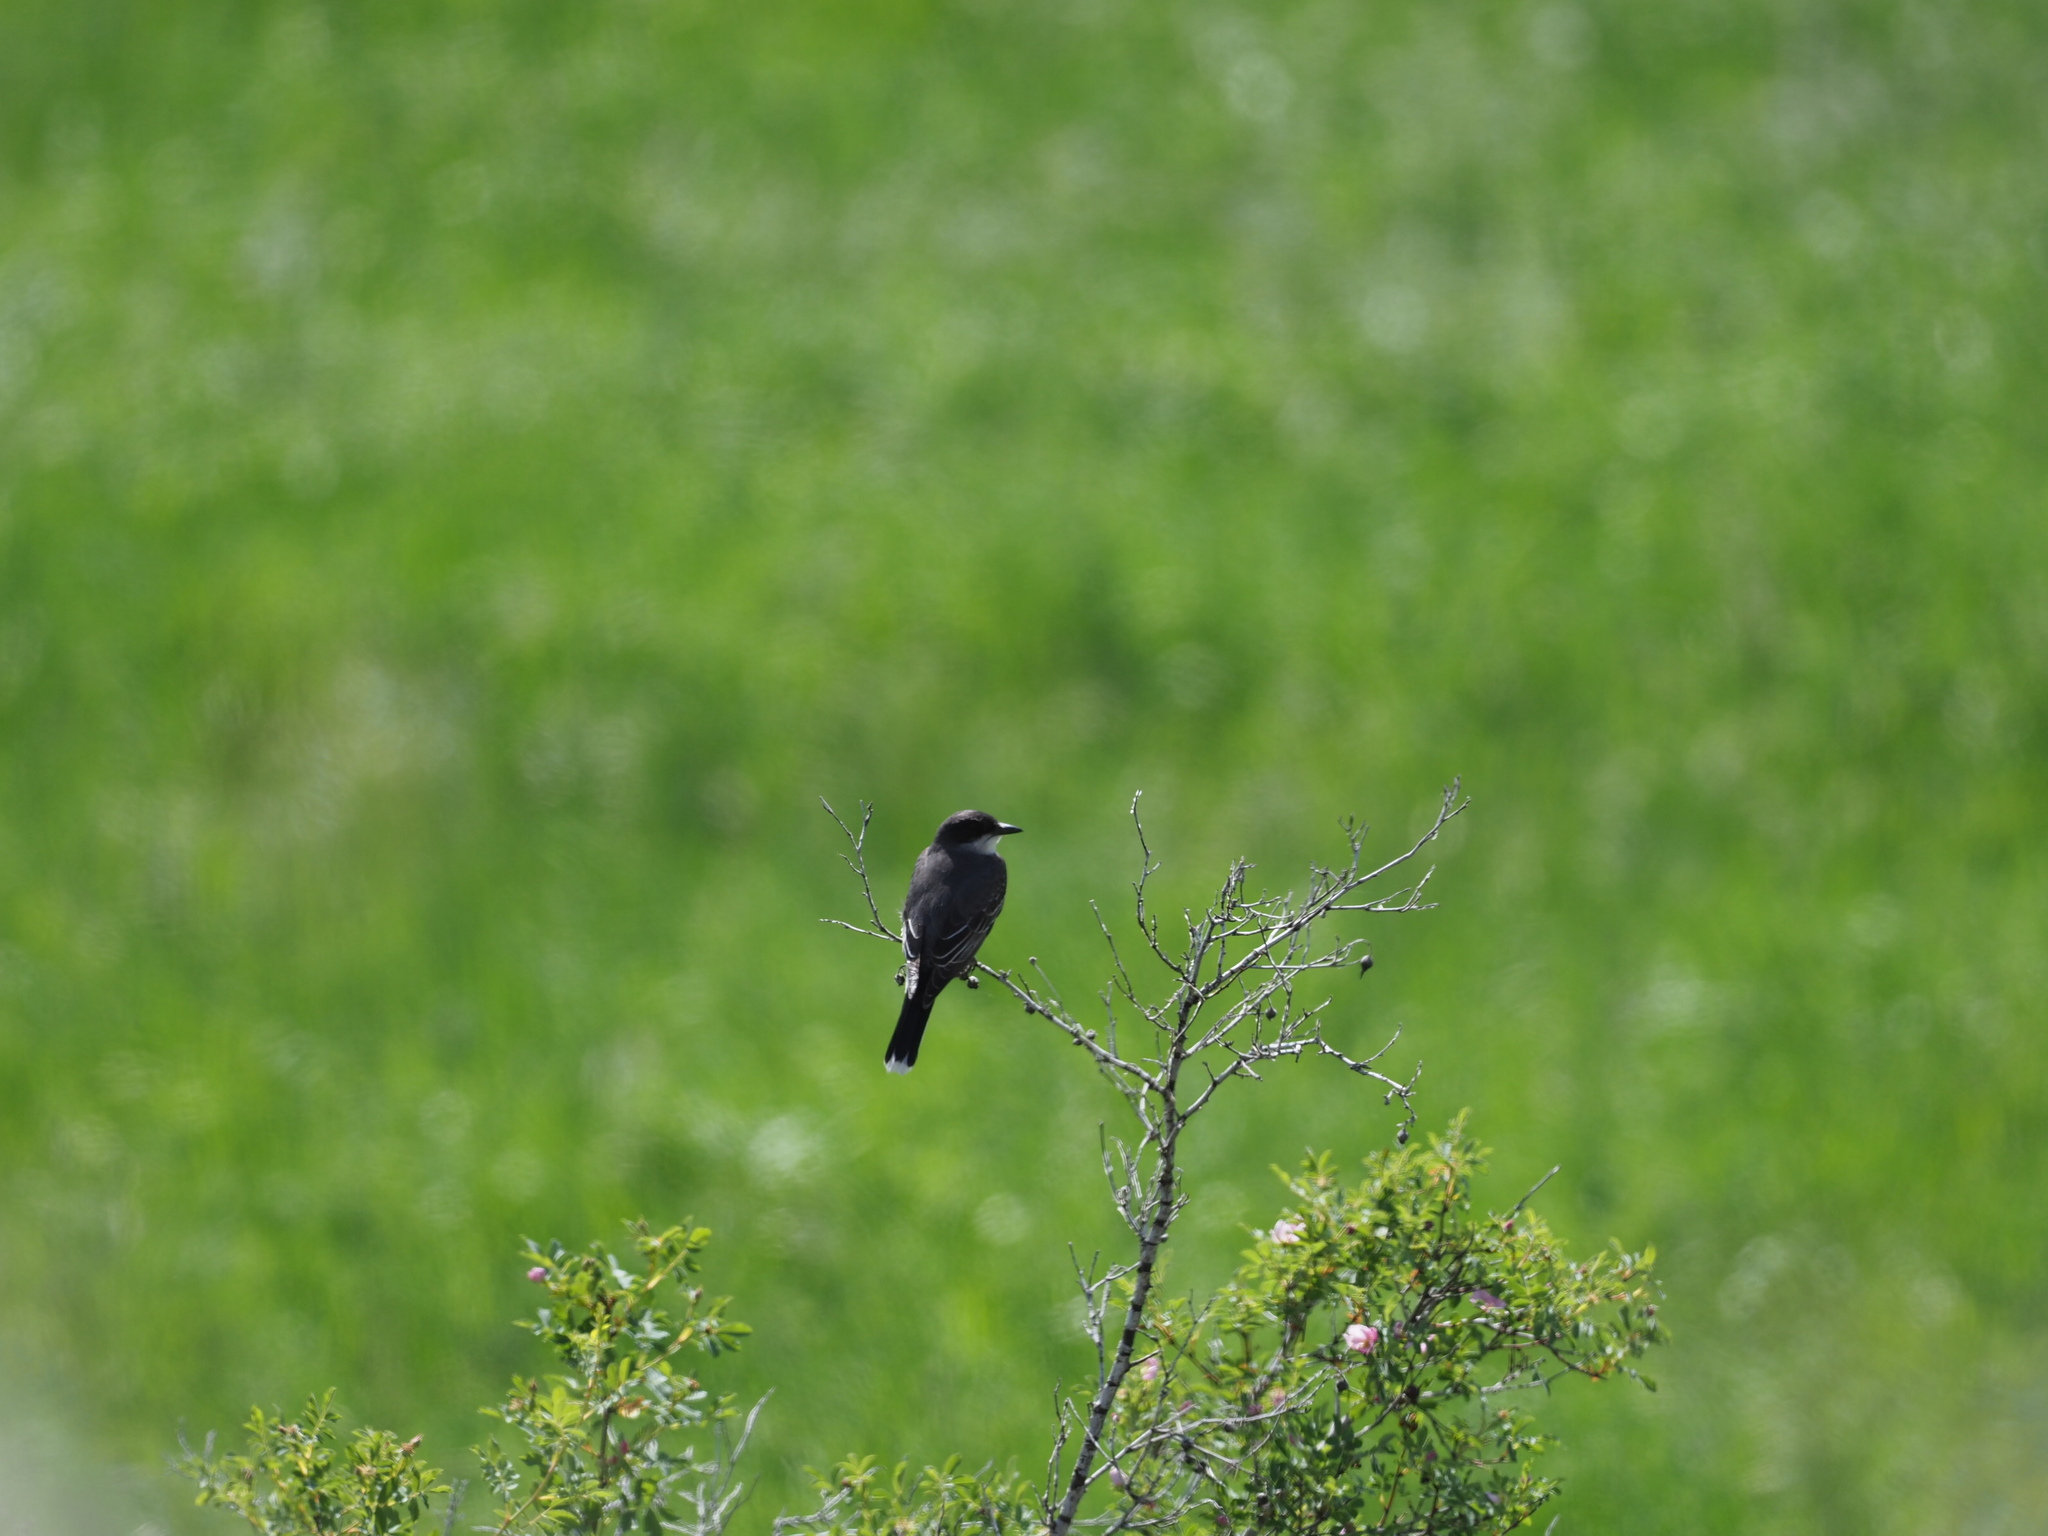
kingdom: Animalia
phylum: Chordata
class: Aves
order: Passeriformes
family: Tyrannidae
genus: Tyrannus
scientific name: Tyrannus tyrannus
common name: Eastern kingbird
